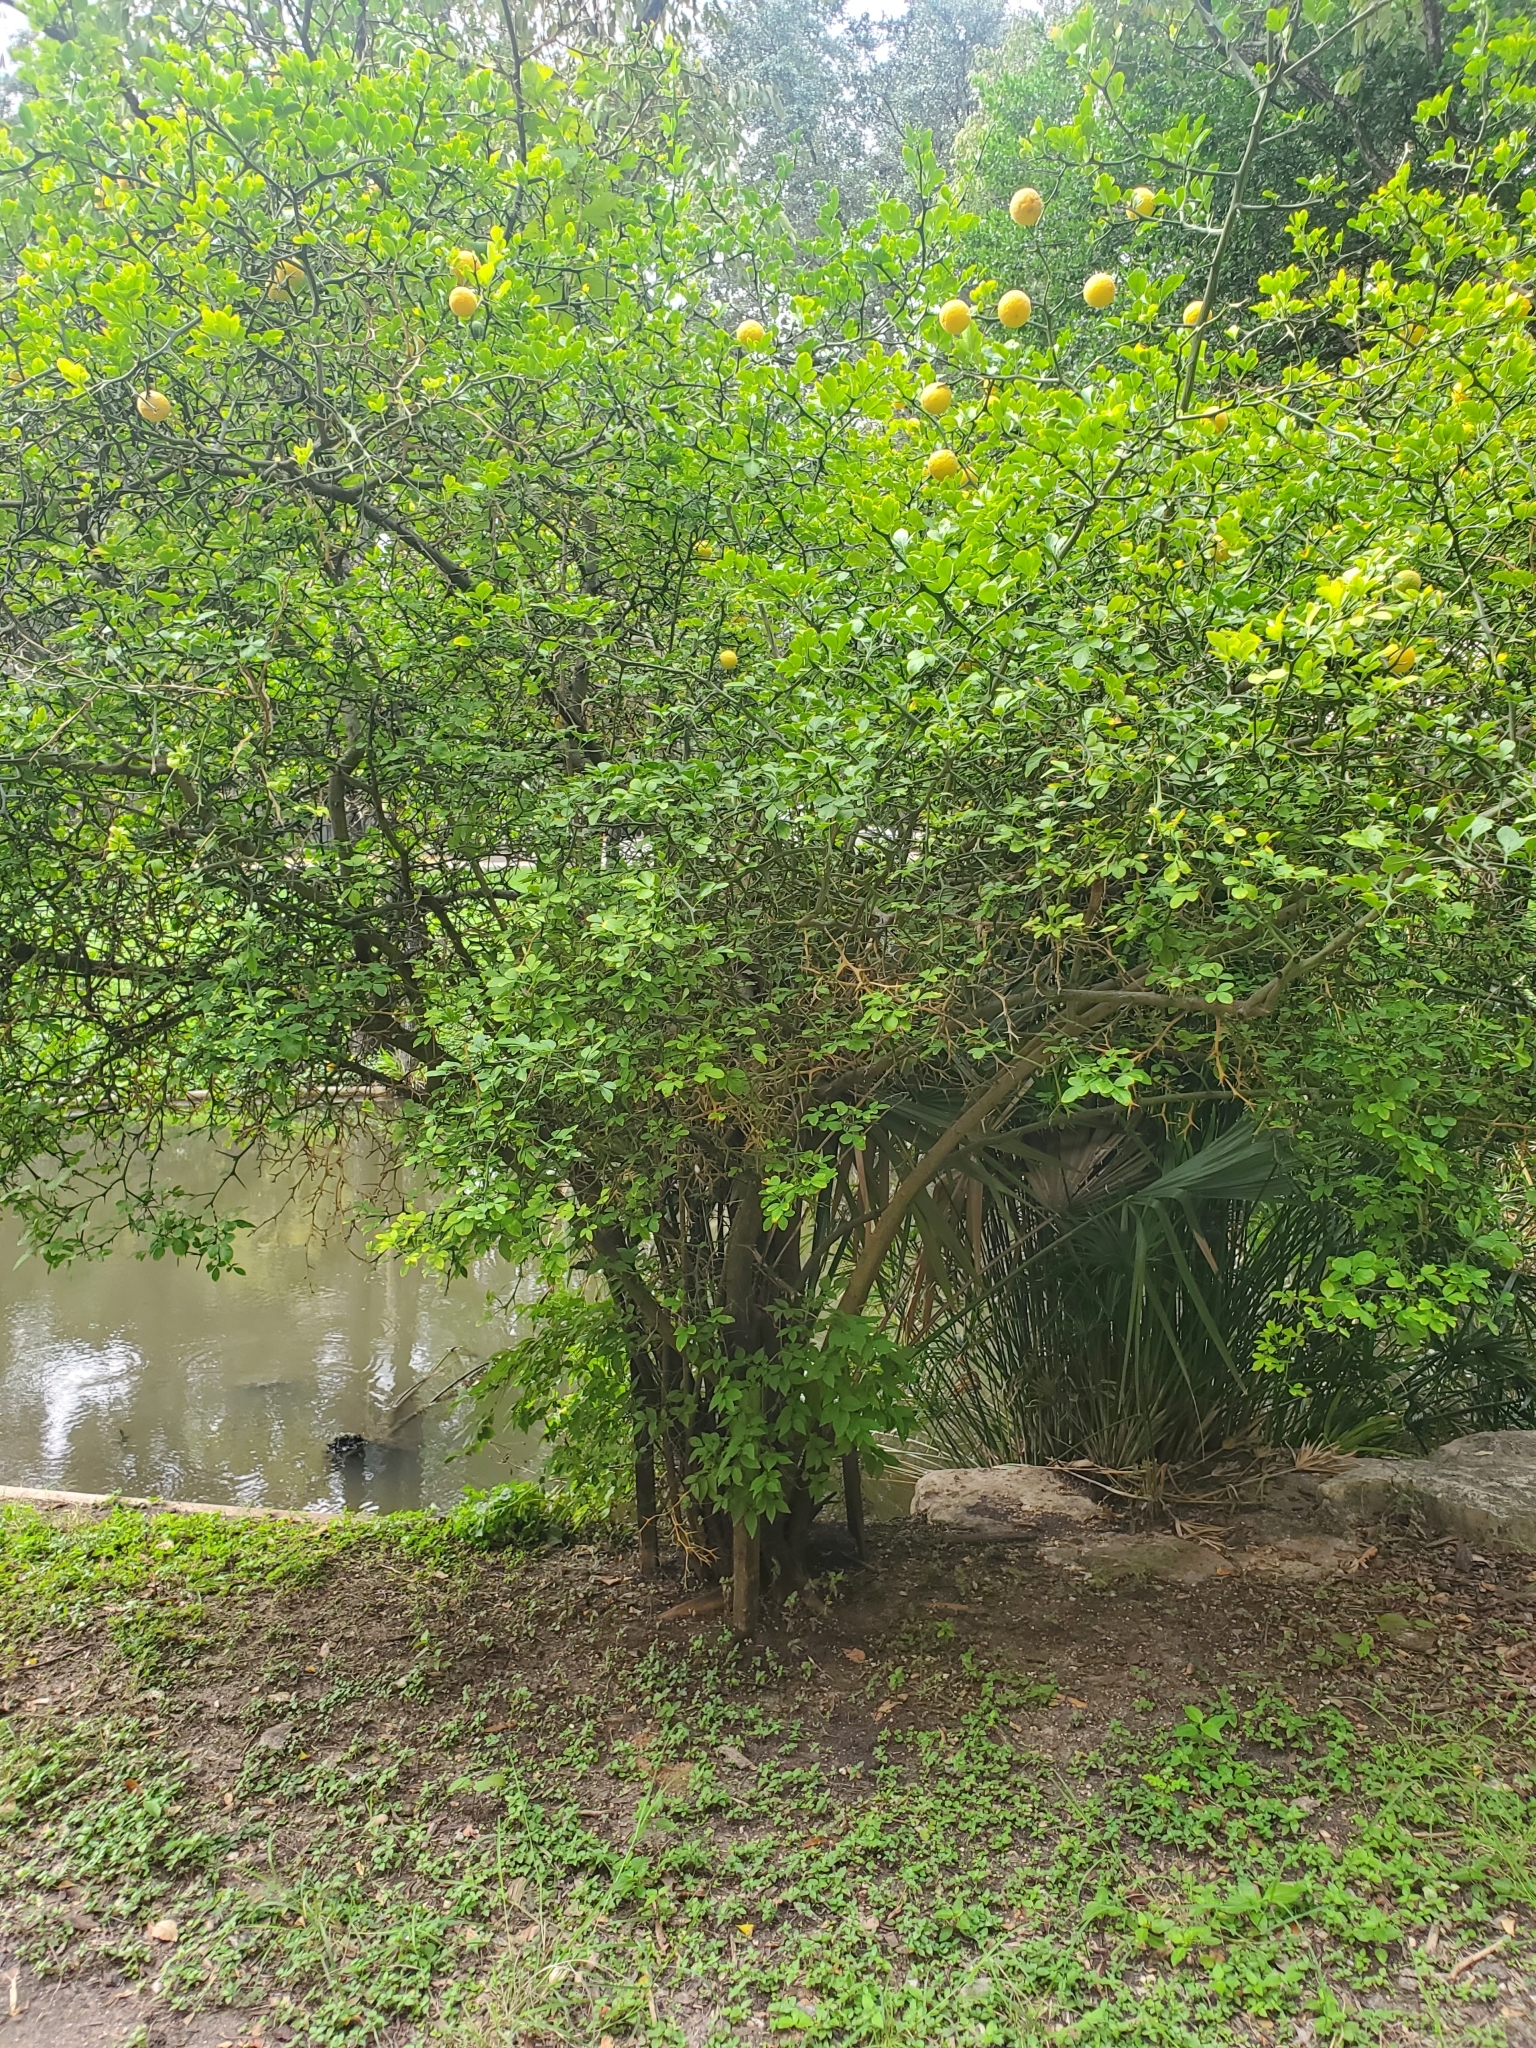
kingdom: Plantae
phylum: Tracheophyta
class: Magnoliopsida
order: Sapindales
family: Rutaceae
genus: Citrus
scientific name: Citrus trifoliata
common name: Japanese bitter-orange
